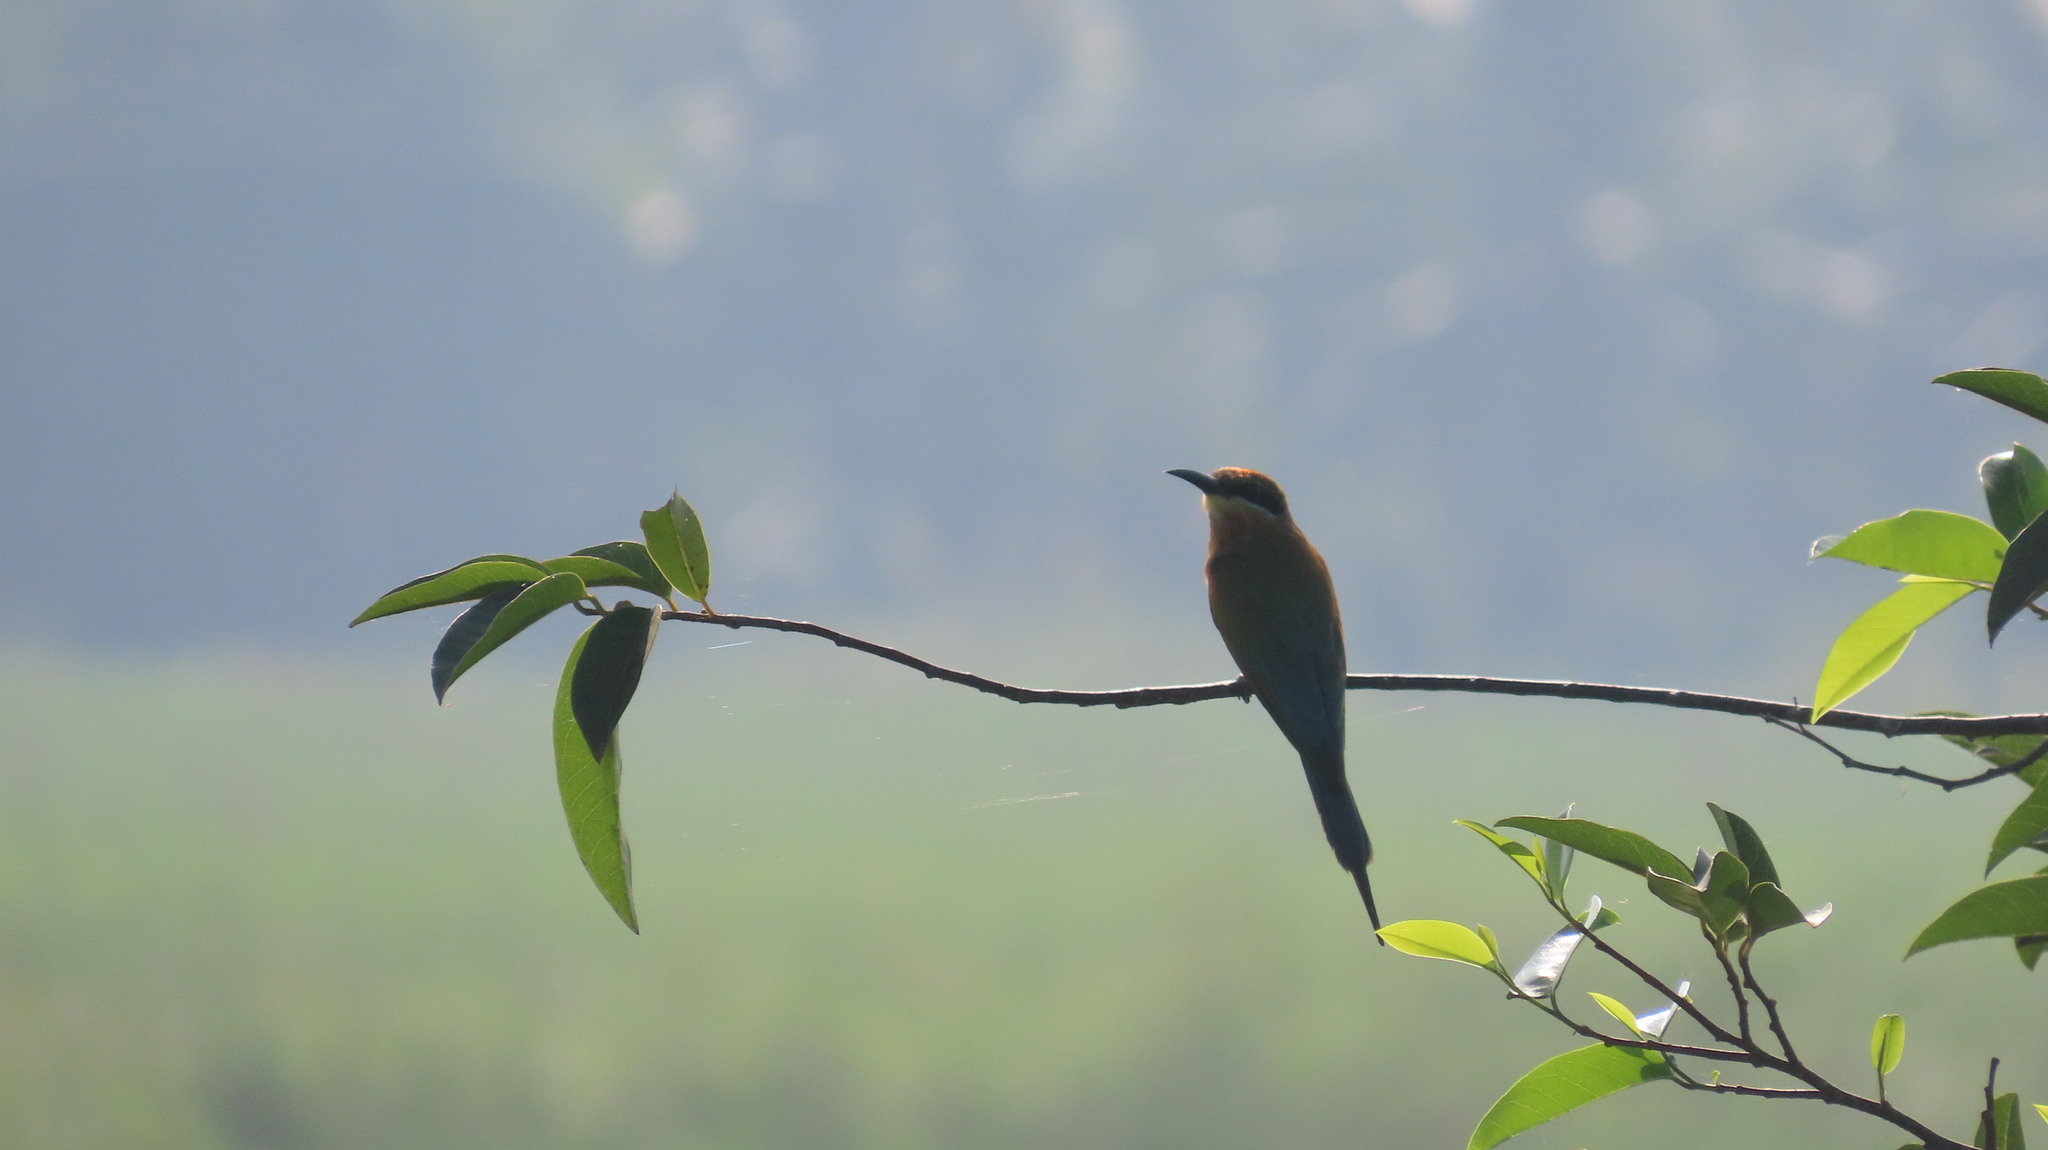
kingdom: Animalia
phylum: Chordata
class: Aves
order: Coraciiformes
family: Meropidae
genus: Merops
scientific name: Merops philippinus
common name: Blue-tailed bee-eater
